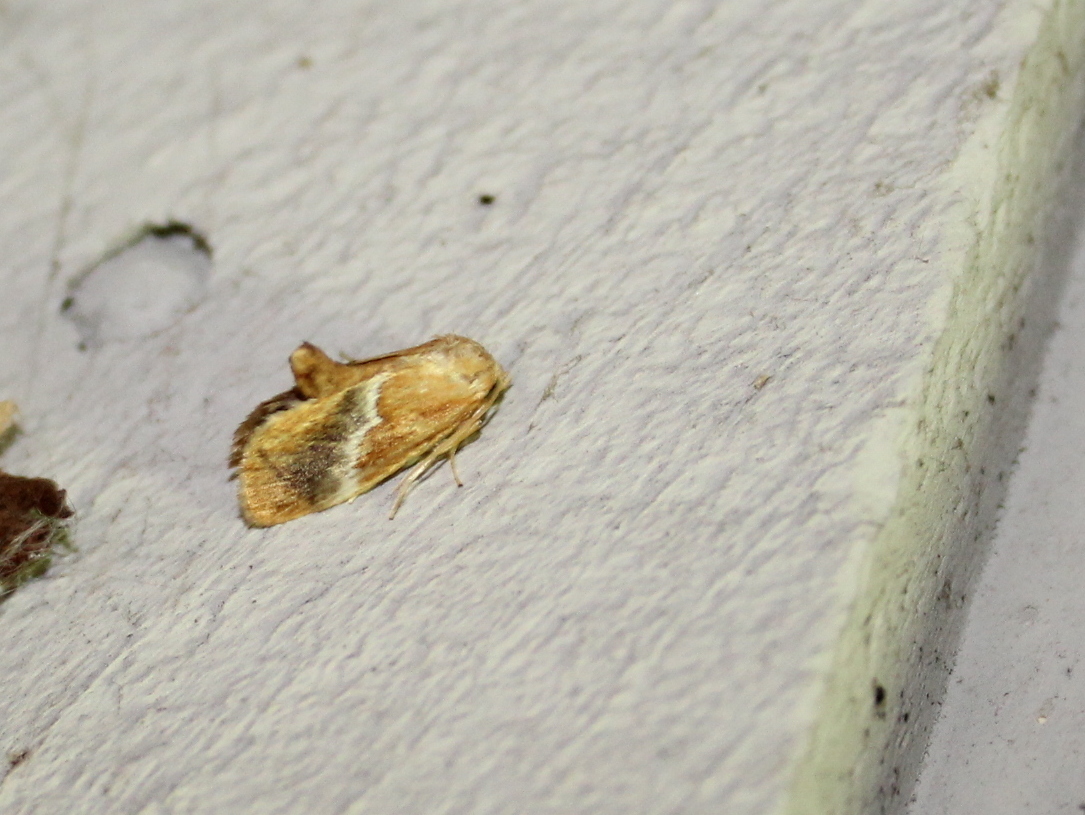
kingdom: Animalia
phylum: Arthropoda
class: Insecta
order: Lepidoptera
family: Limacodidae
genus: Lithacodes
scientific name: Lithacodes fasciola
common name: Yellow-shouldered slug moth
